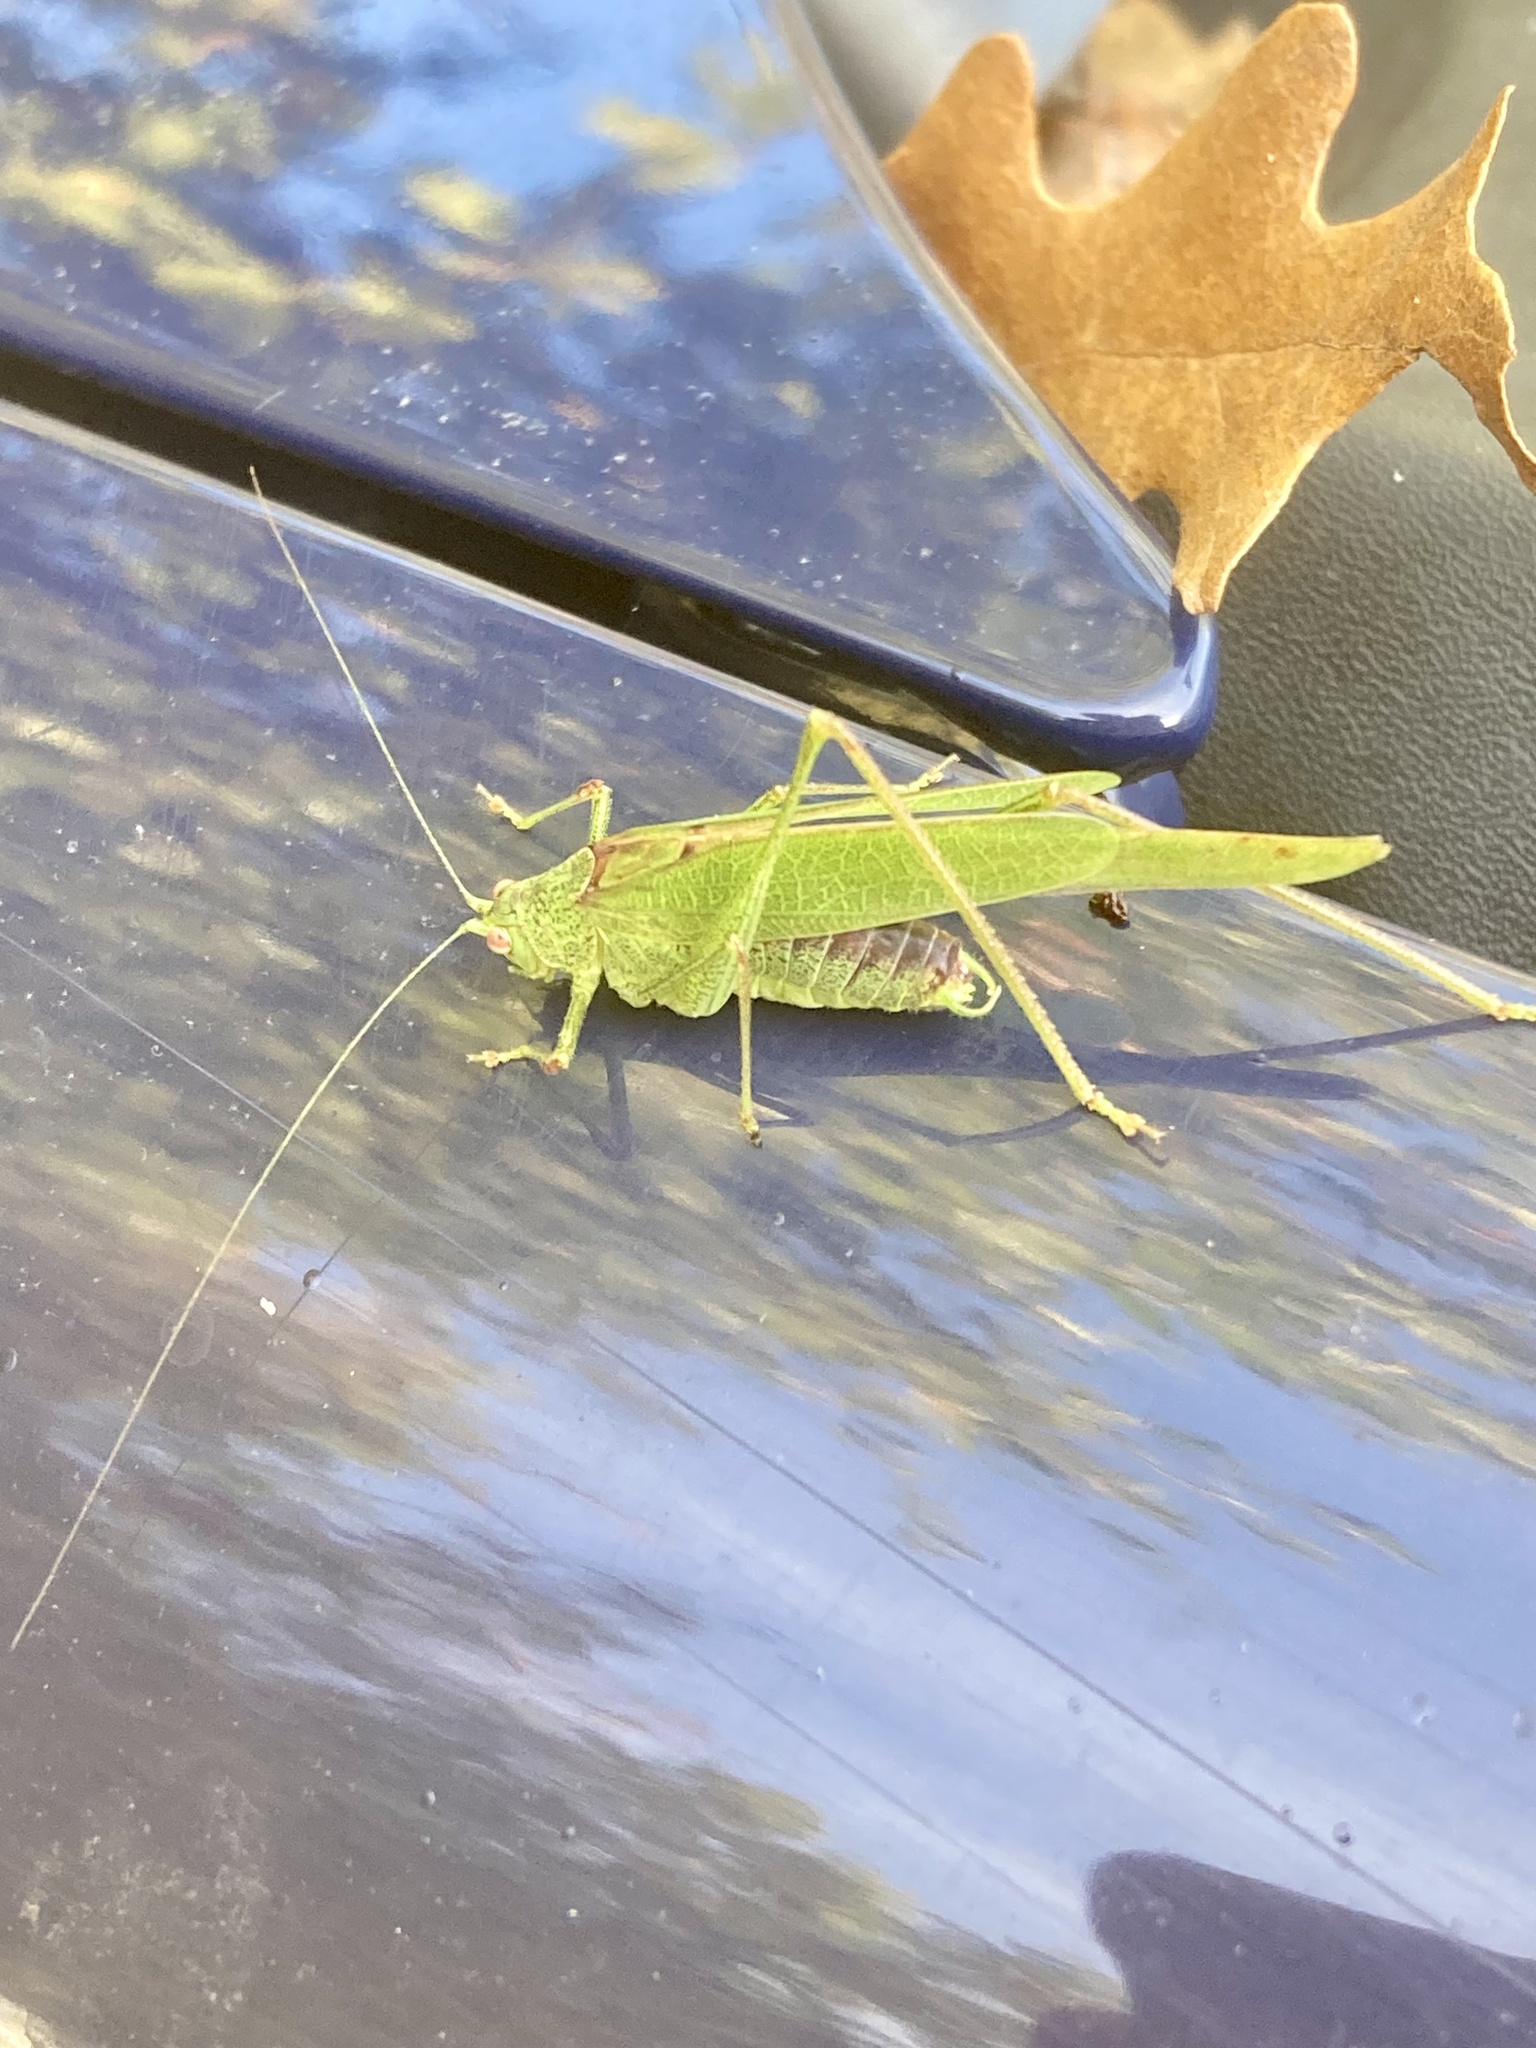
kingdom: Animalia
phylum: Arthropoda
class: Insecta
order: Orthoptera
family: Tettigoniidae
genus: Phaneroptera
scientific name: Phaneroptera nana
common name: Southern sickle bush-cricket
